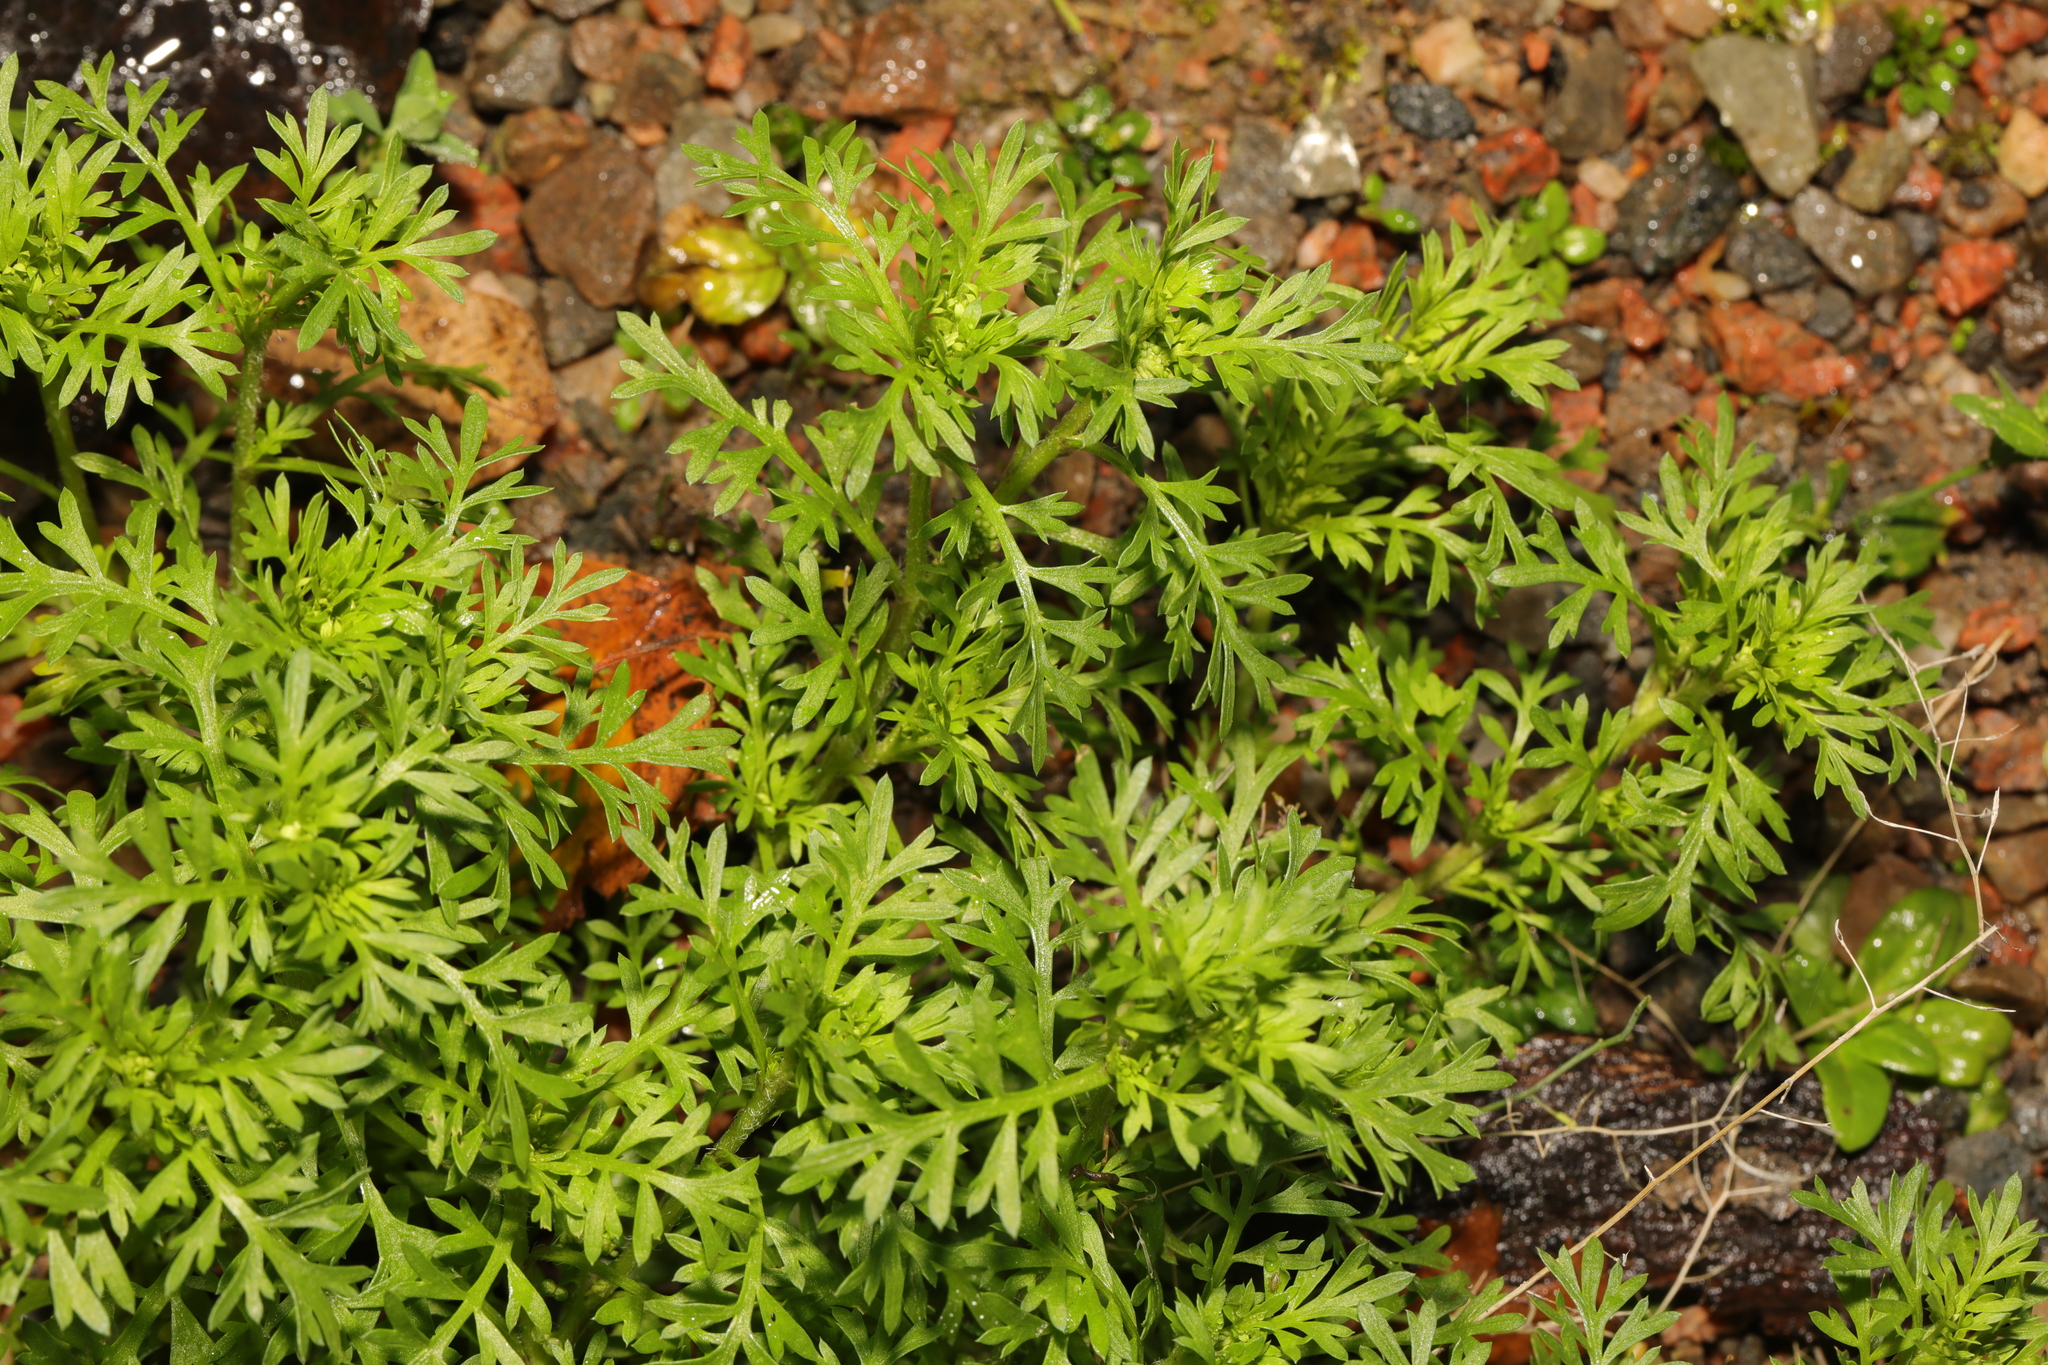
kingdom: Plantae
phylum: Tracheophyta
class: Magnoliopsida
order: Brassicales
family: Brassicaceae
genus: Lepidium
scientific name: Lepidium didymum
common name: Lesser swinecress
